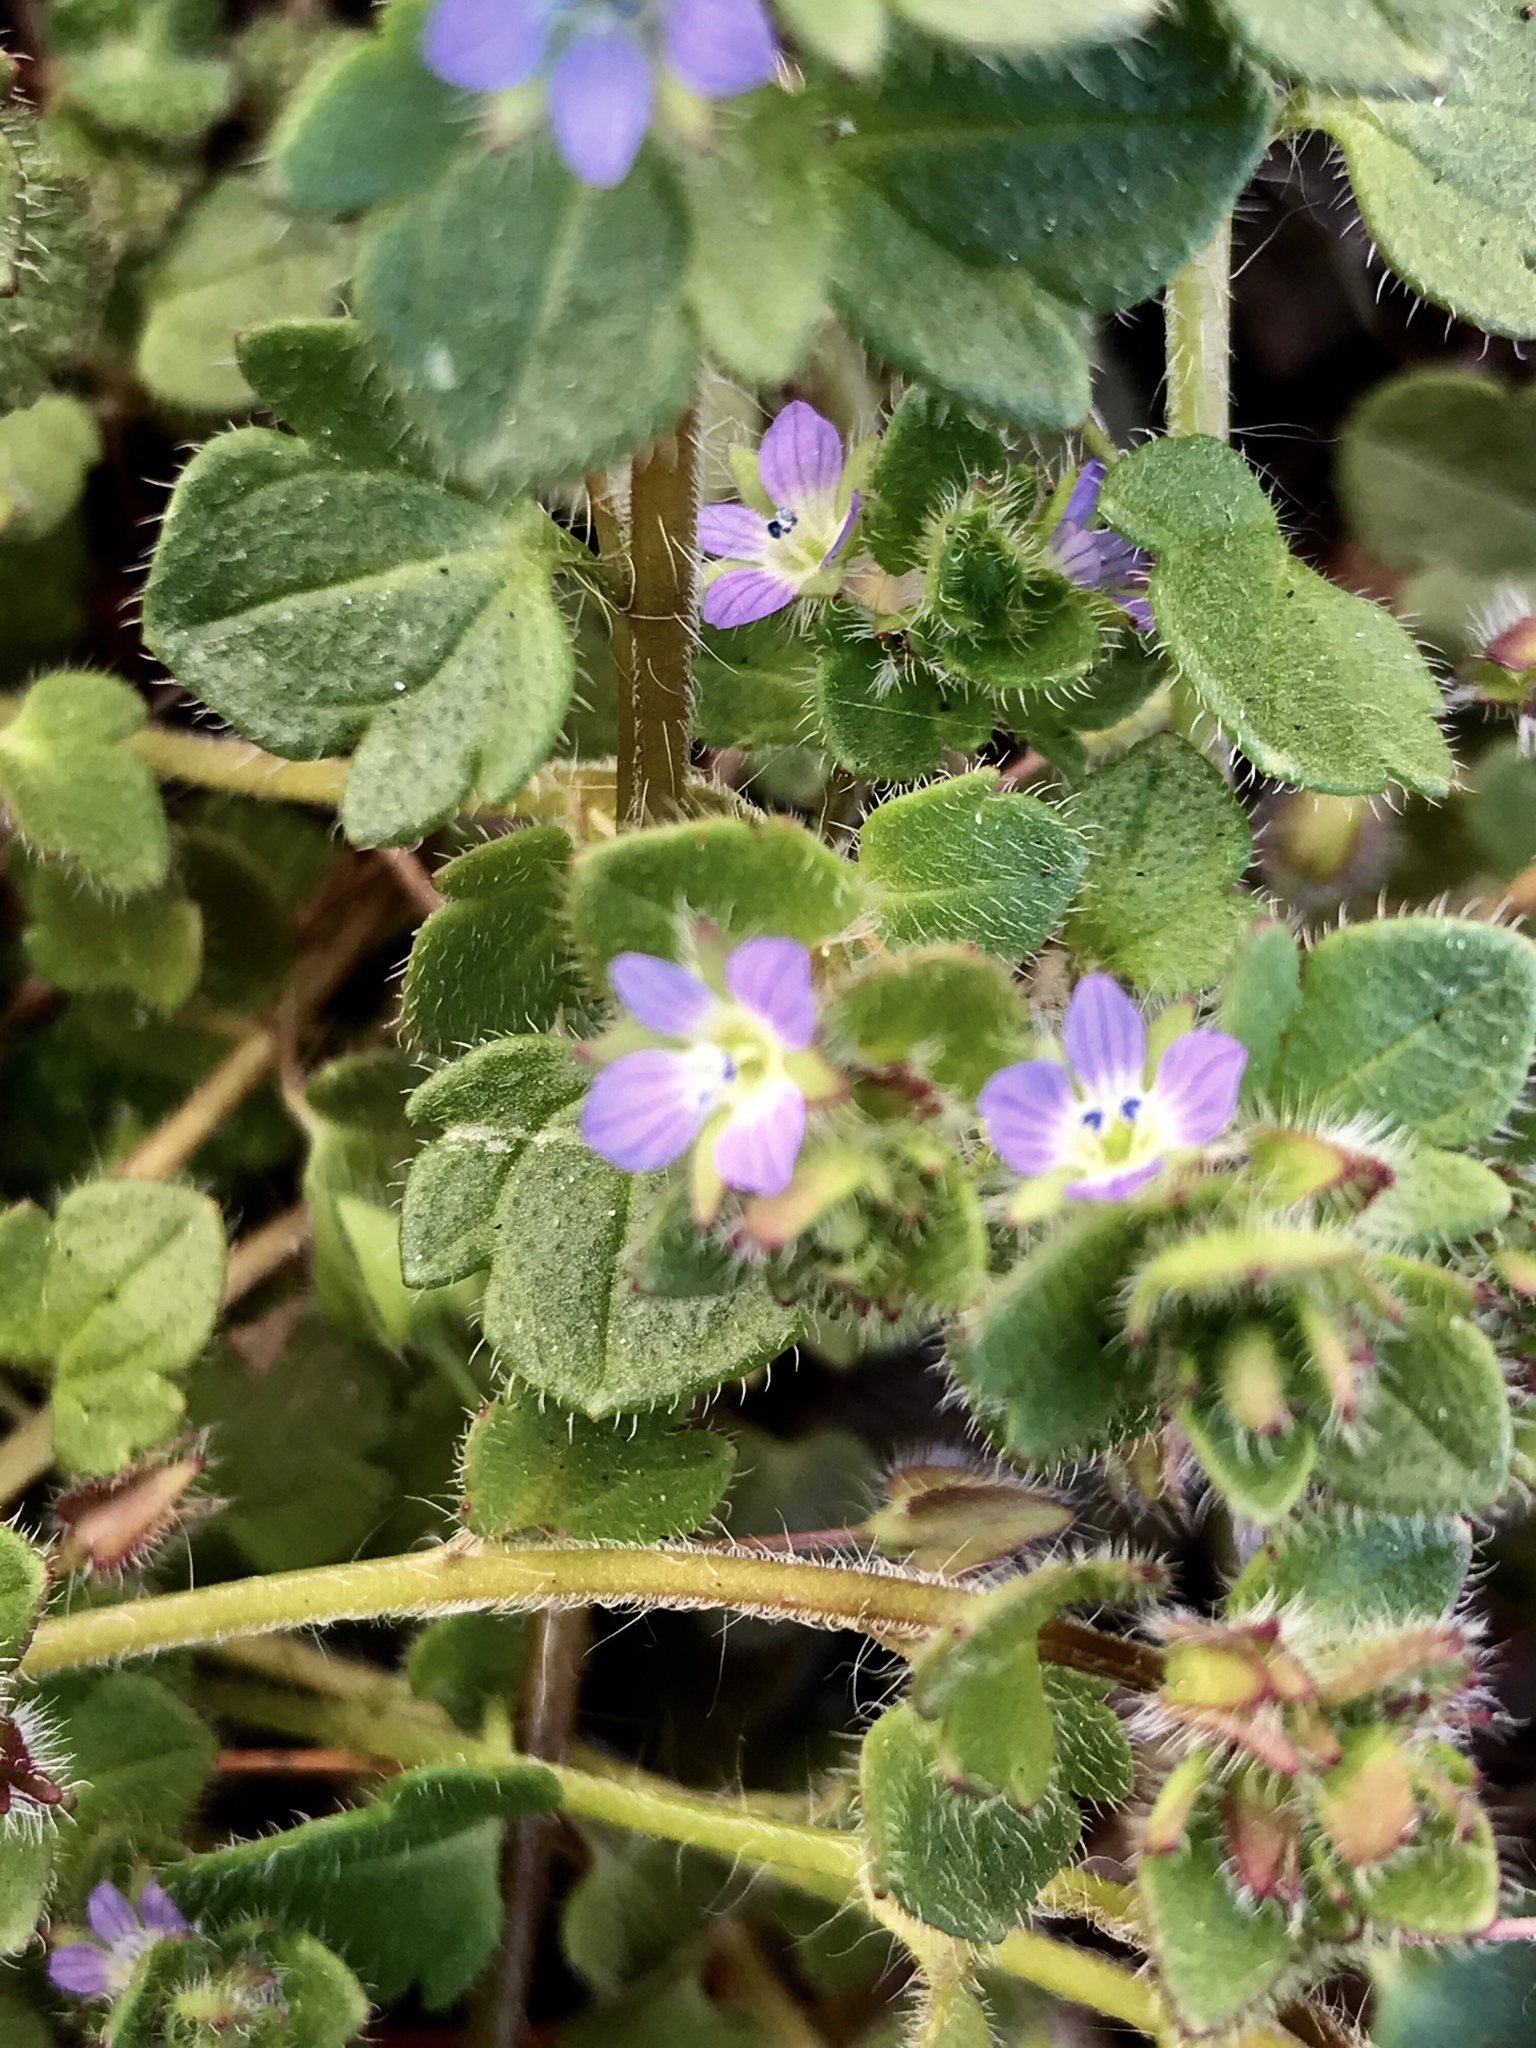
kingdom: Plantae
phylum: Tracheophyta
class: Magnoliopsida
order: Lamiales
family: Plantaginaceae
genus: Veronica
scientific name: Veronica hederifolia
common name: Ivy-leaved speedwell
